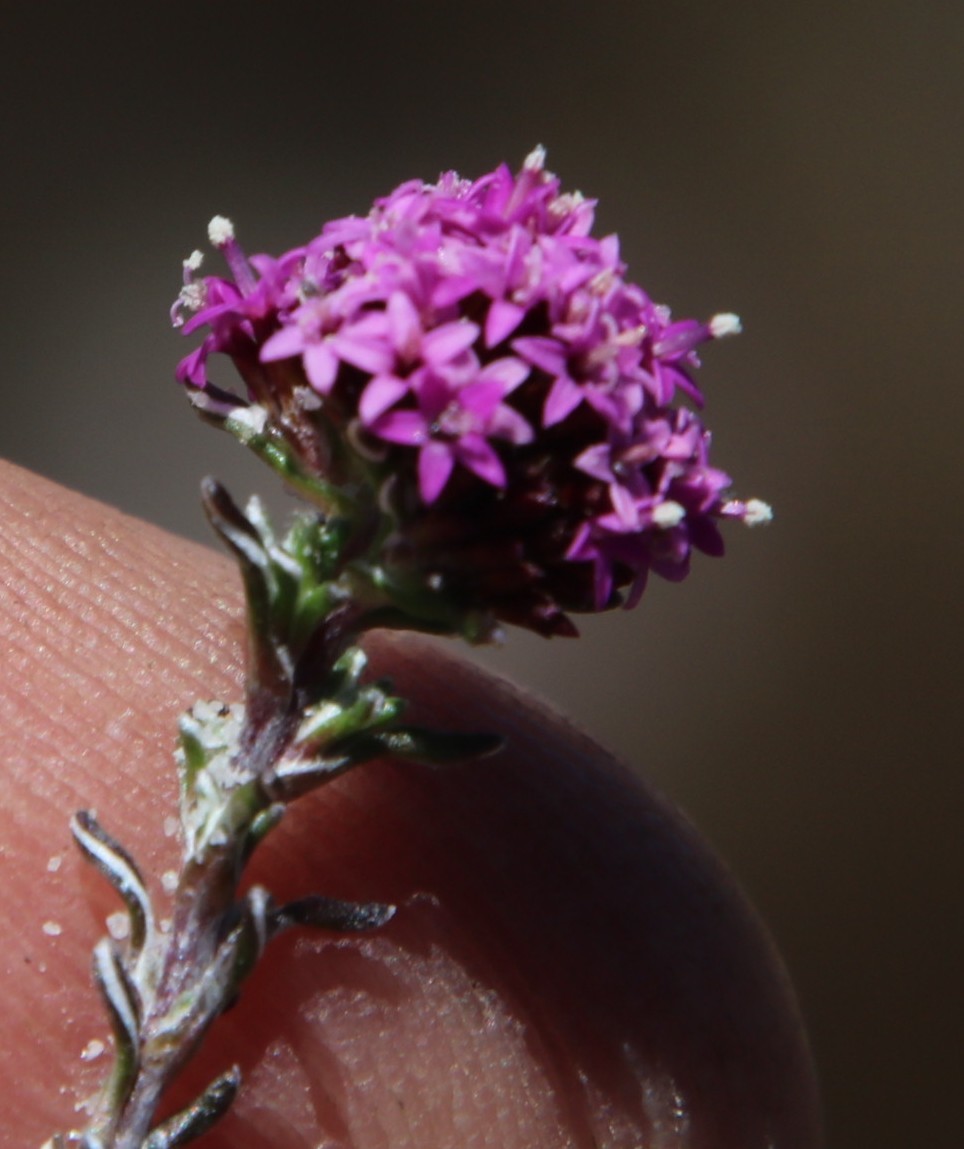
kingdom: Plantae
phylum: Tracheophyta
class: Magnoliopsida
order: Asterales
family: Asteraceae
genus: Stoebe
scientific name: Stoebe montana
